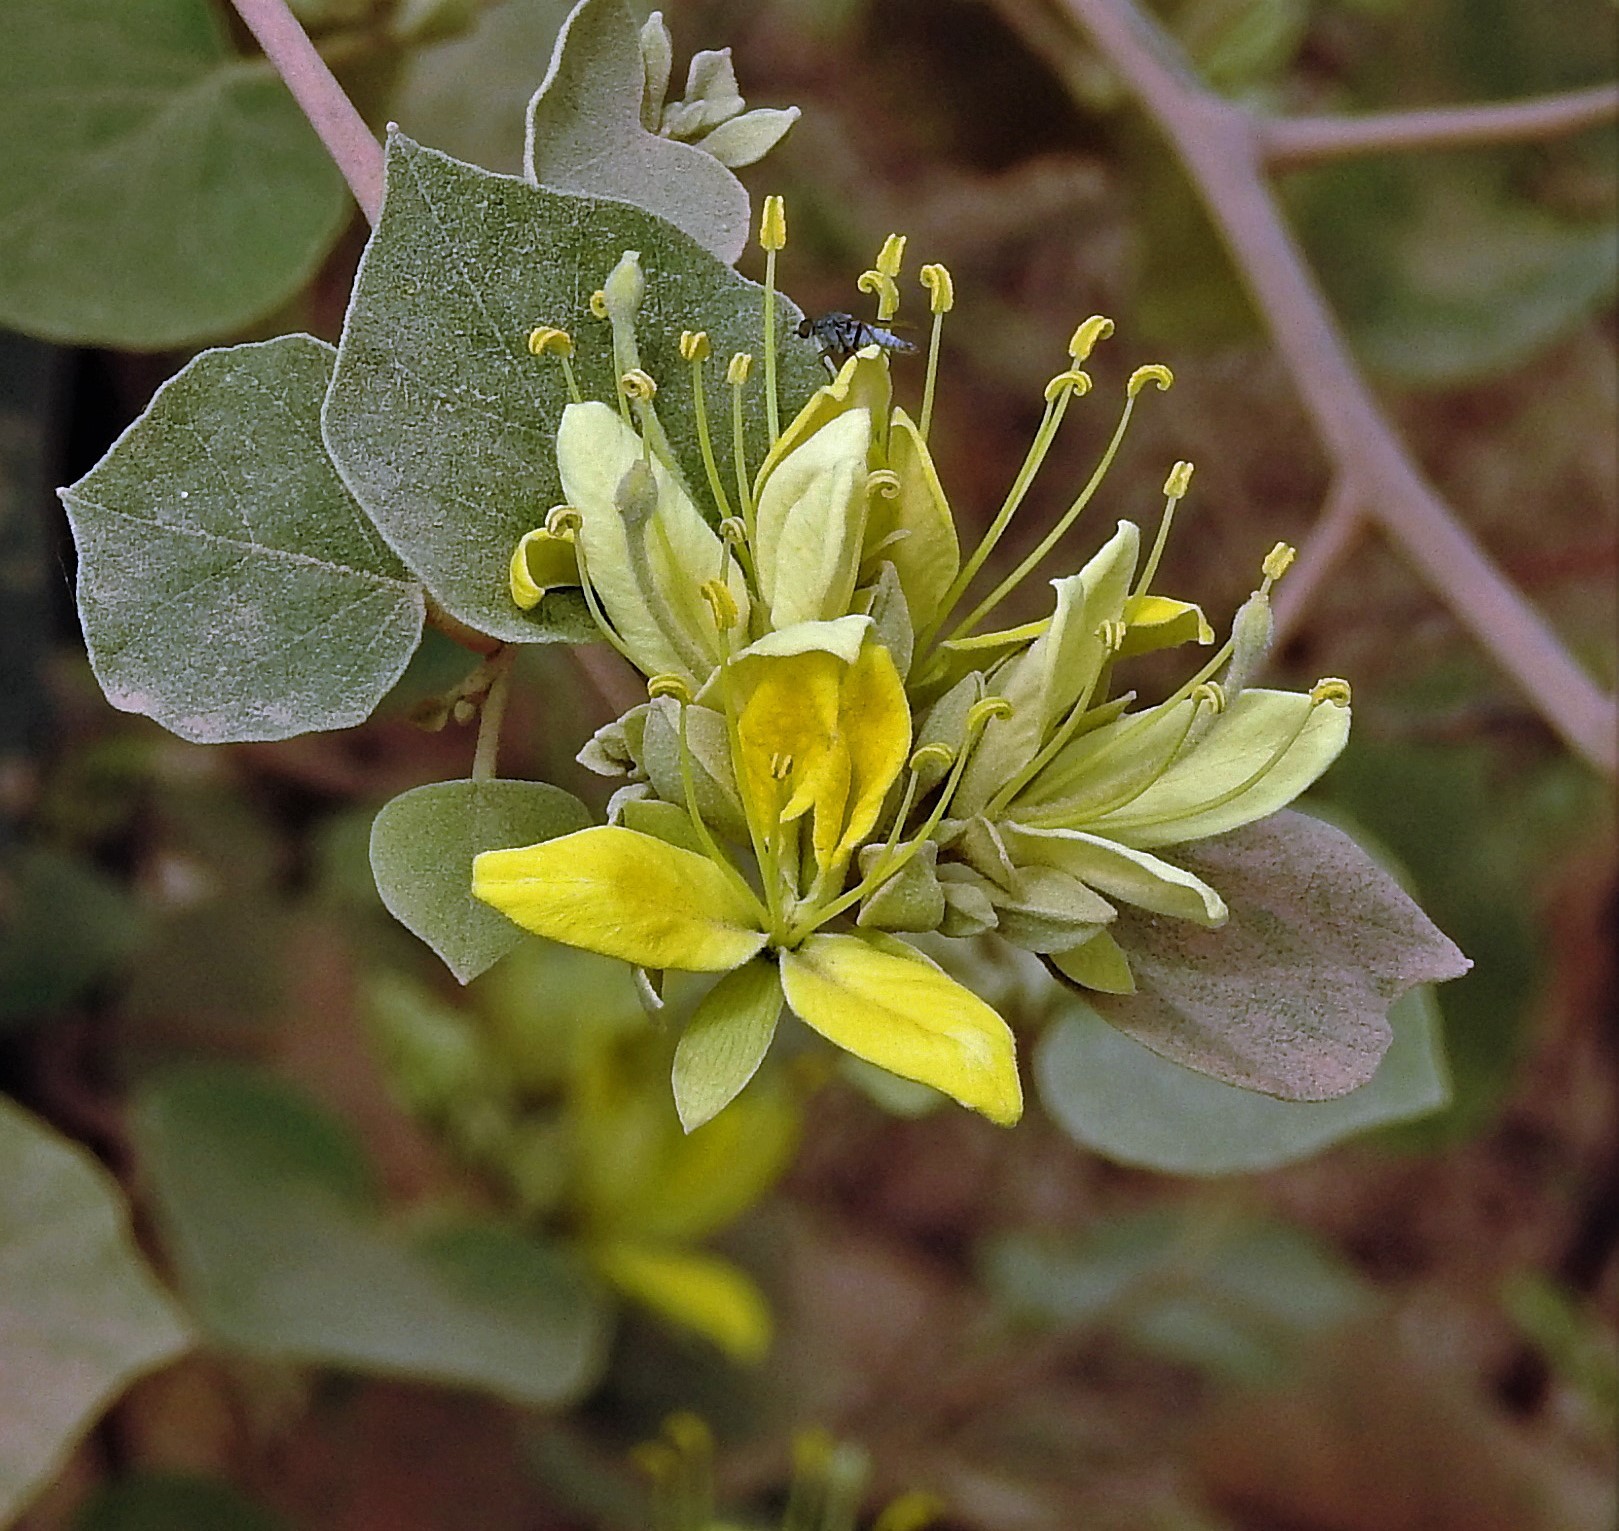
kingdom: Plantae
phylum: Tracheophyta
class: Magnoliopsida
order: Brassicales
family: Capparaceae
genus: Capparicordis
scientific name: Capparicordis tweedieana
